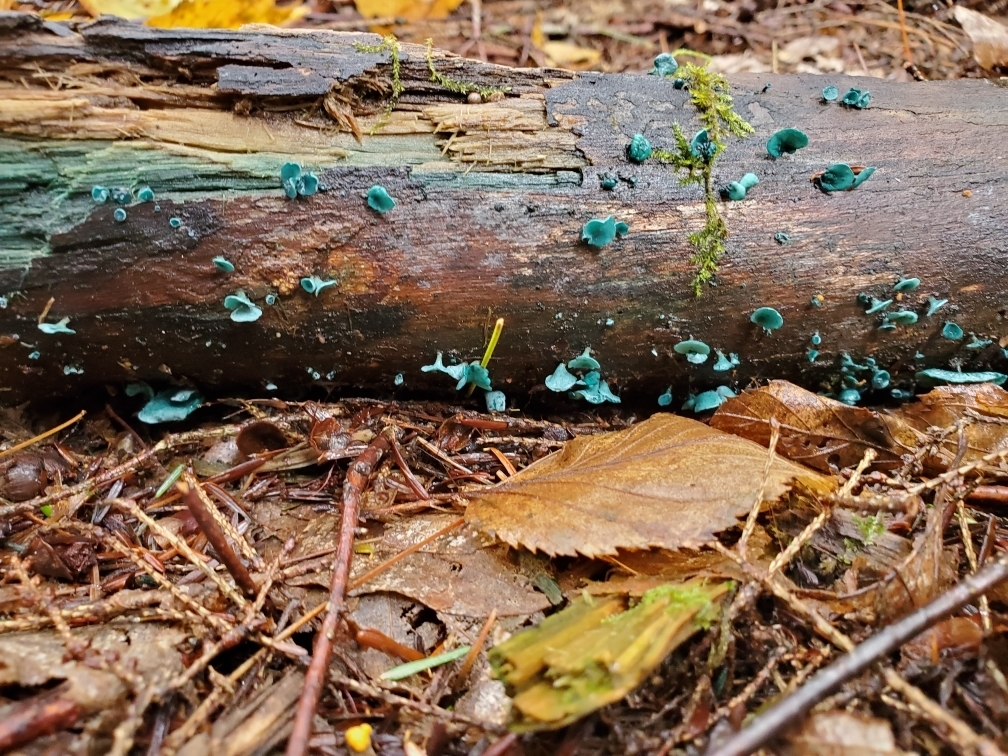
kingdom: Fungi
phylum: Ascomycota
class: Leotiomycetes
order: Helotiales
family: Chlorociboriaceae
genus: Chlorociboria
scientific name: Chlorociboria aeruginascens
